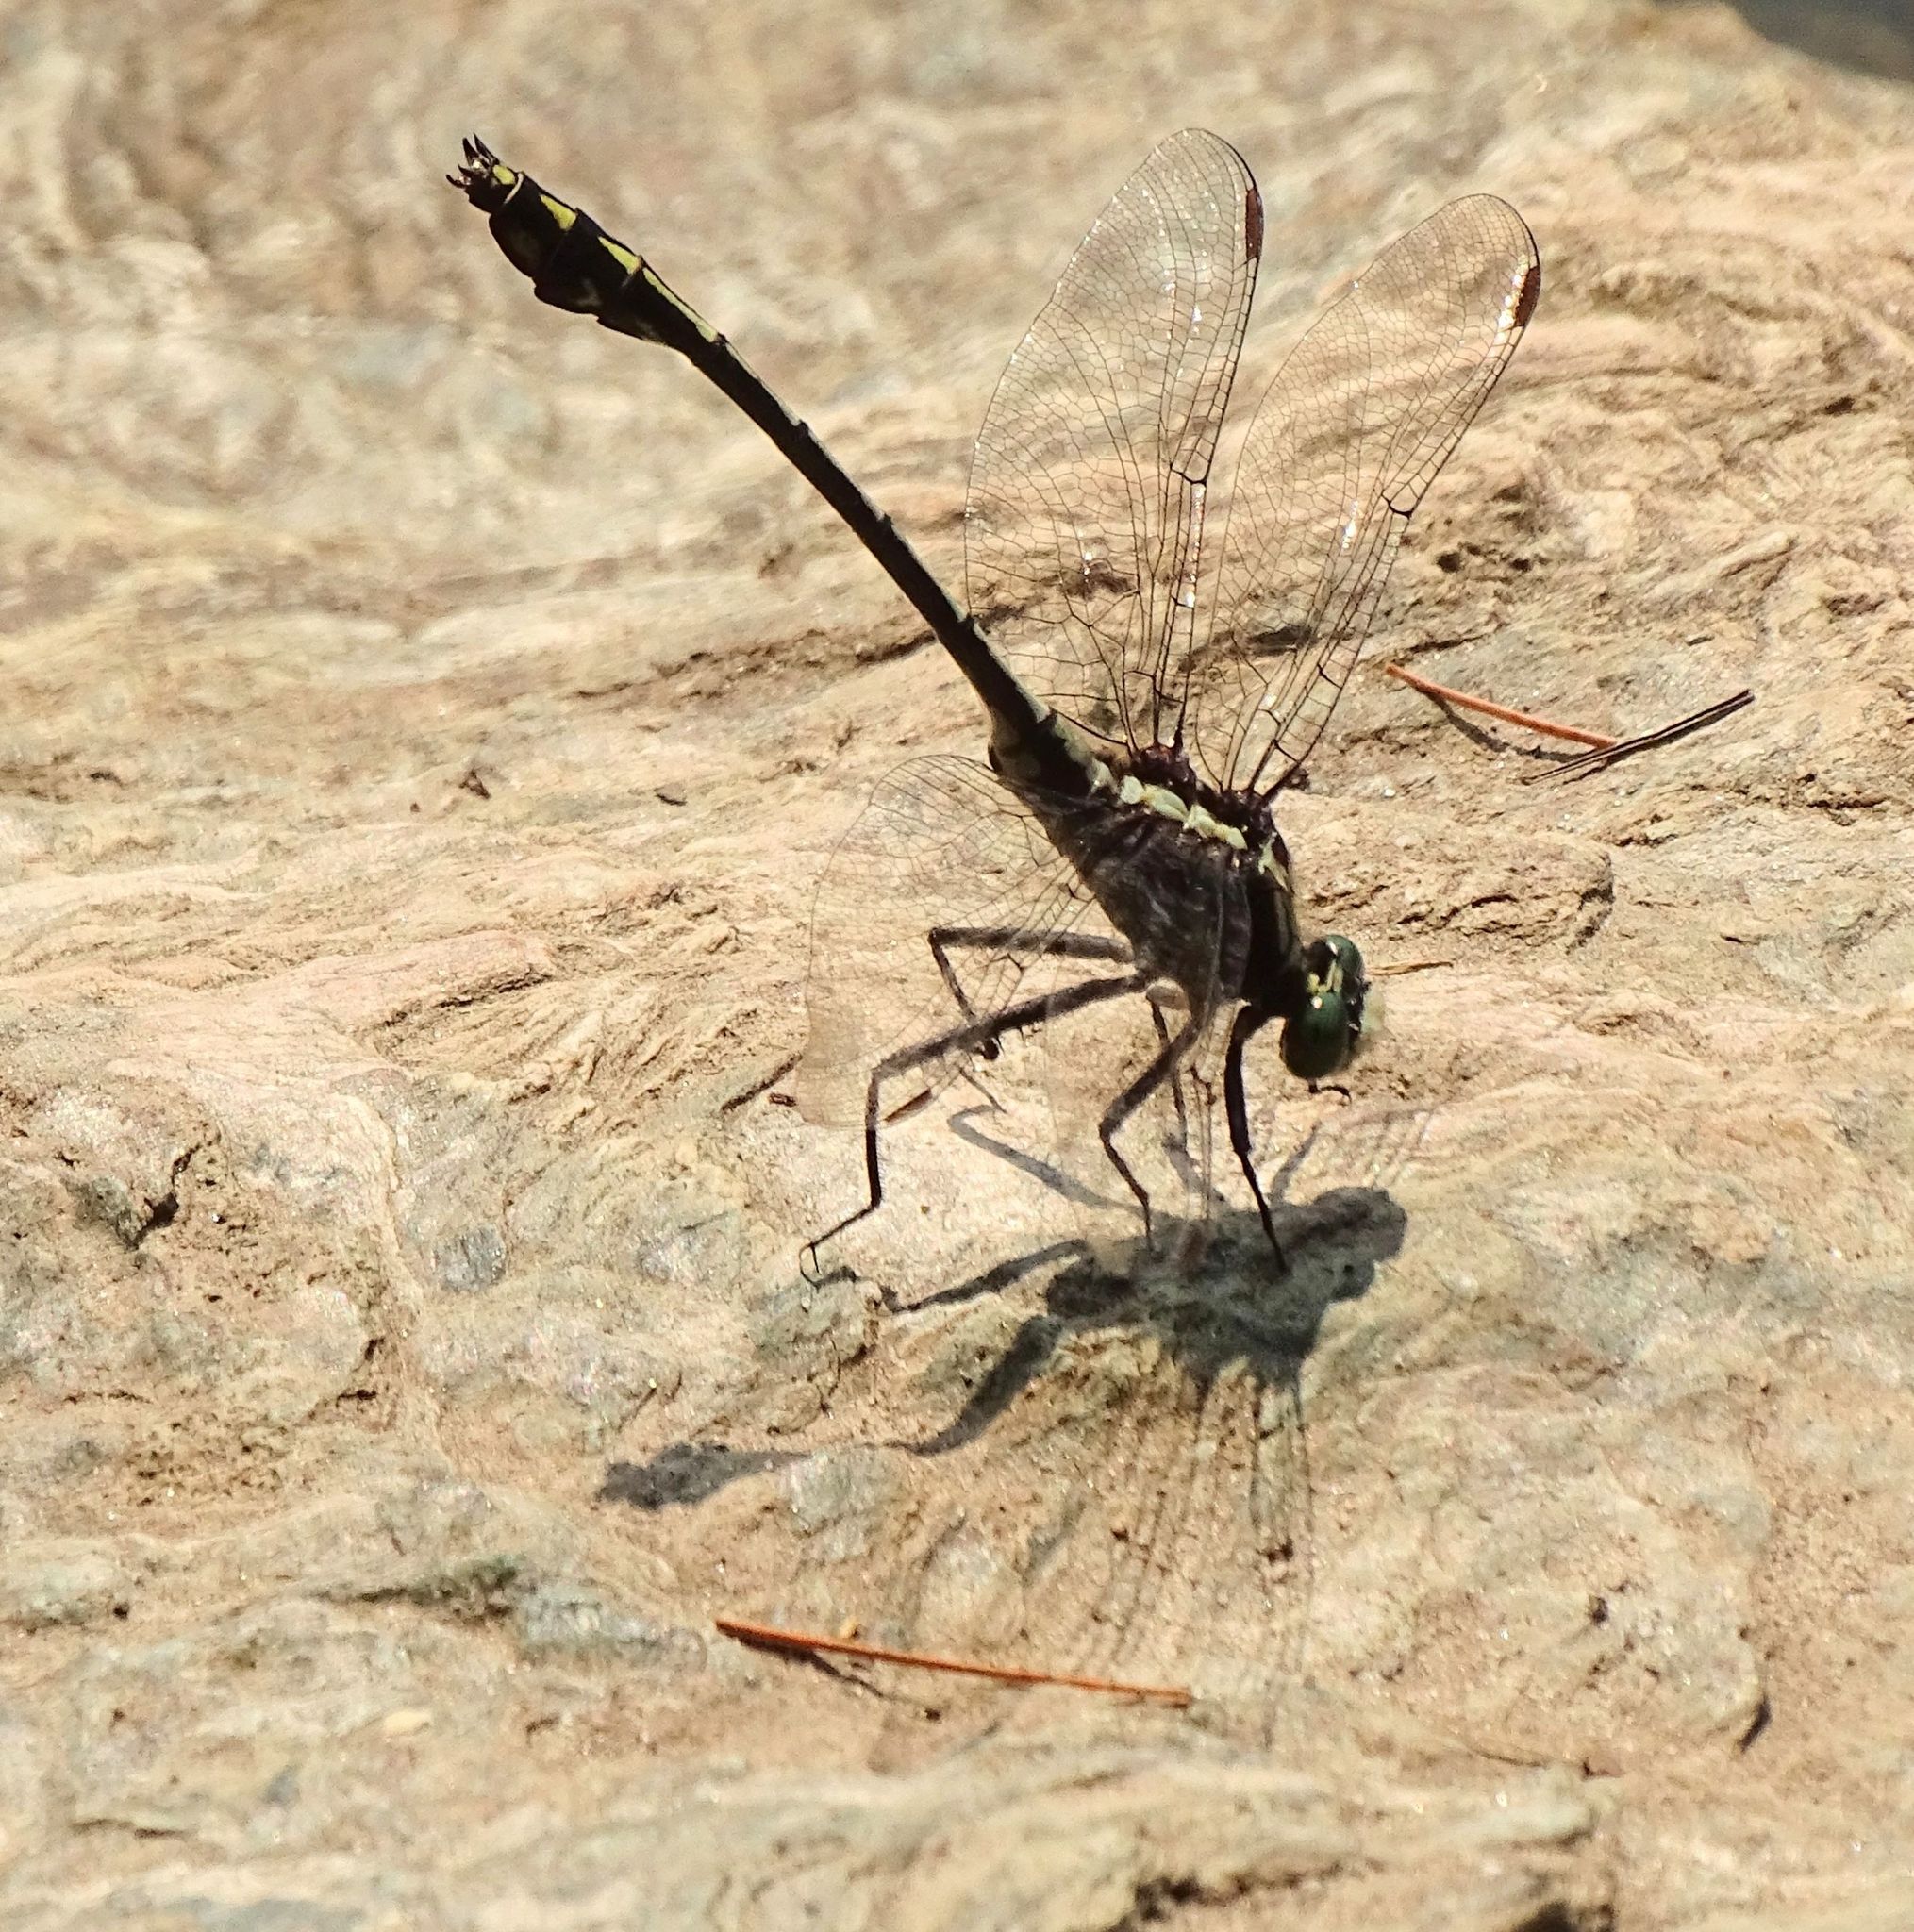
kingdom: Animalia
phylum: Arthropoda
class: Insecta
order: Odonata
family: Gomphidae
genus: Dromogomphus
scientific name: Dromogomphus spinosus
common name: Black-shouldered spinyleg
